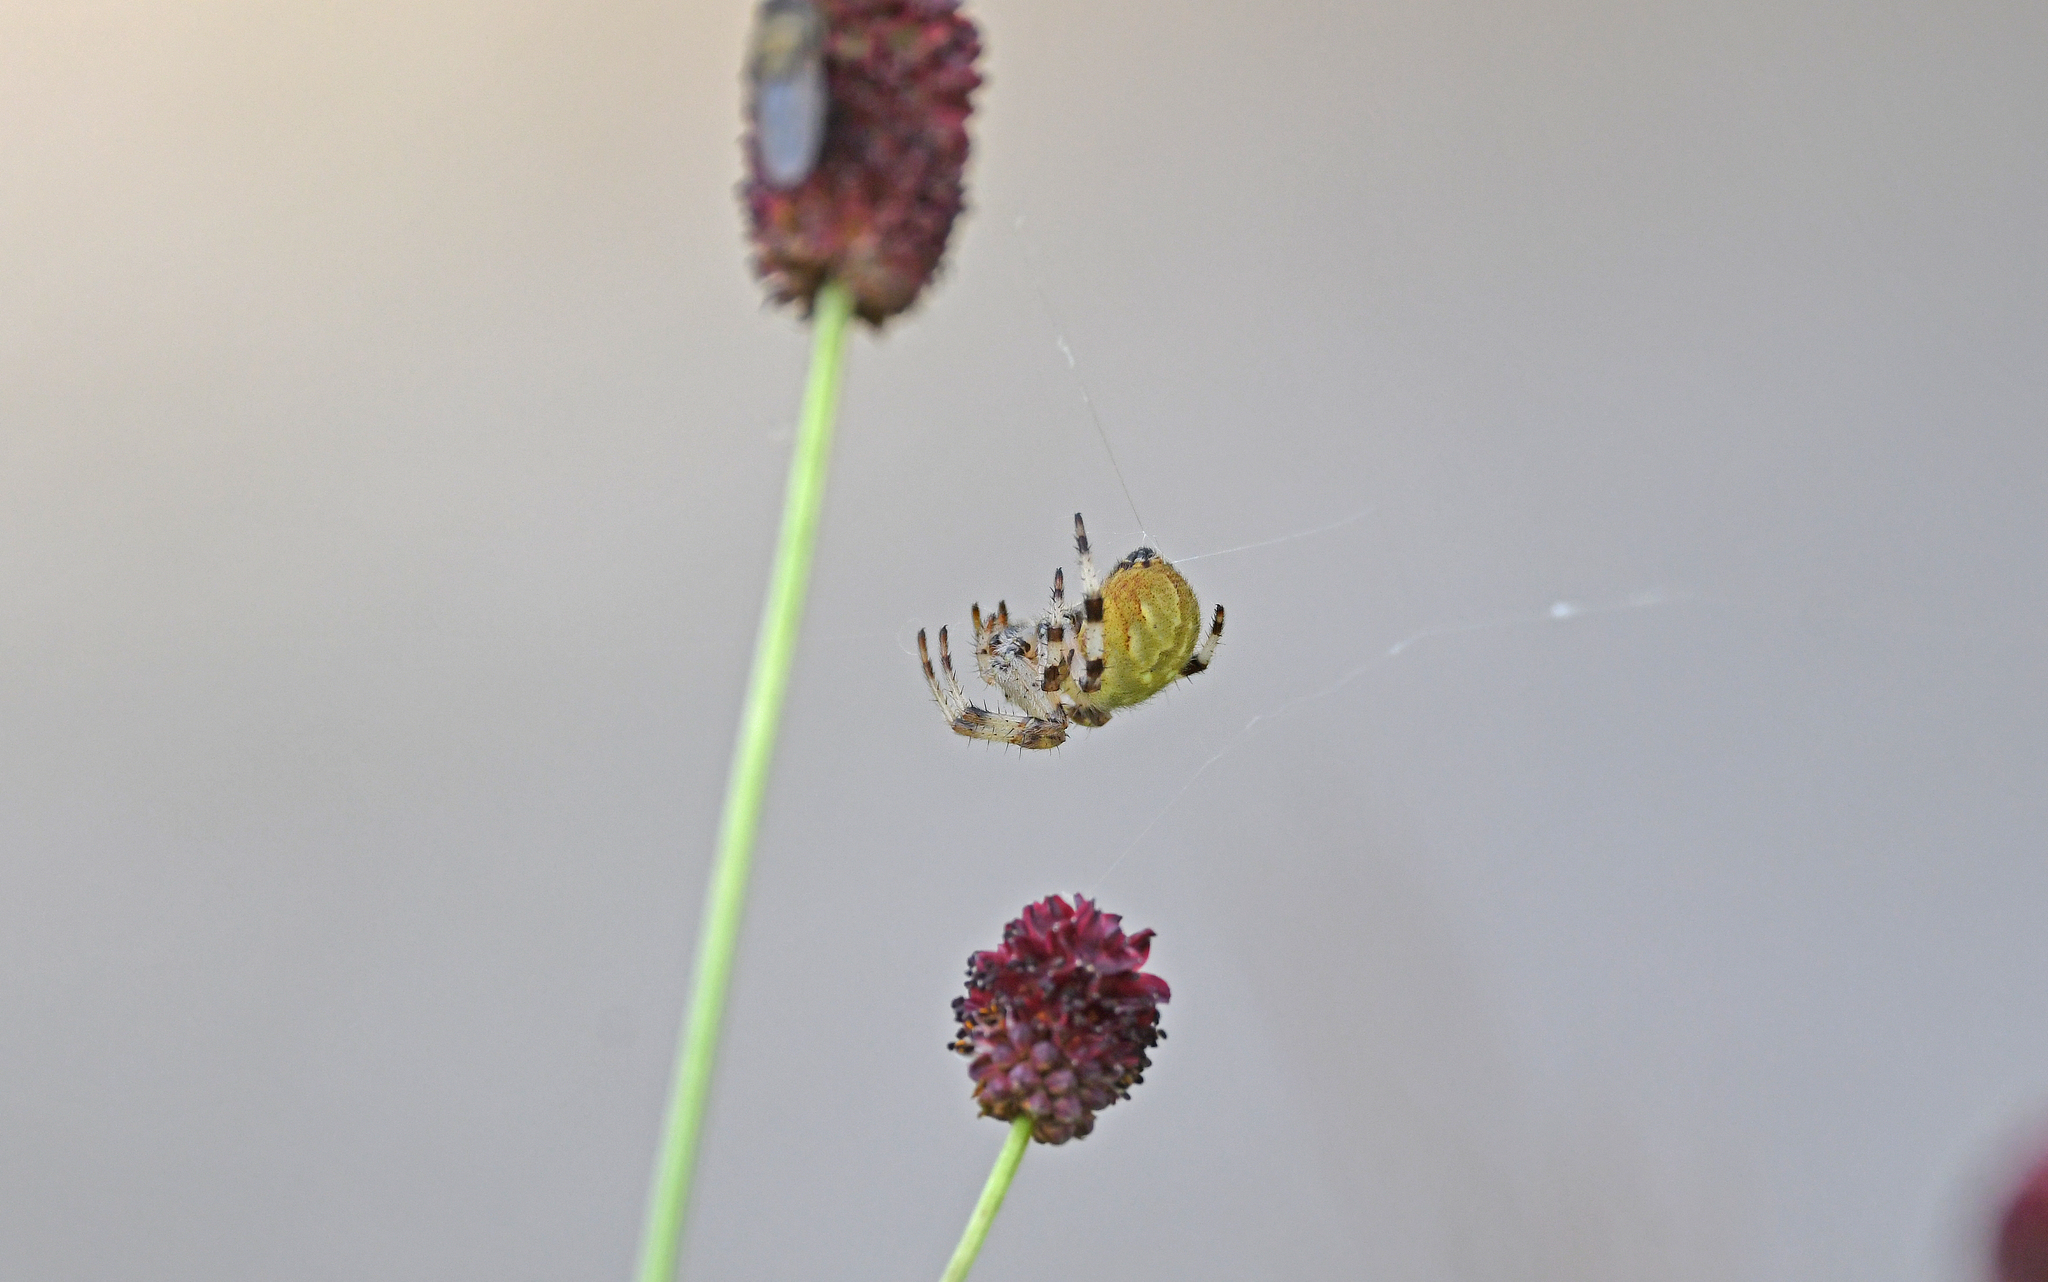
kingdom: Animalia
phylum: Arthropoda
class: Arachnida
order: Araneae
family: Araneidae
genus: Araneus
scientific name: Araneus quadratus
